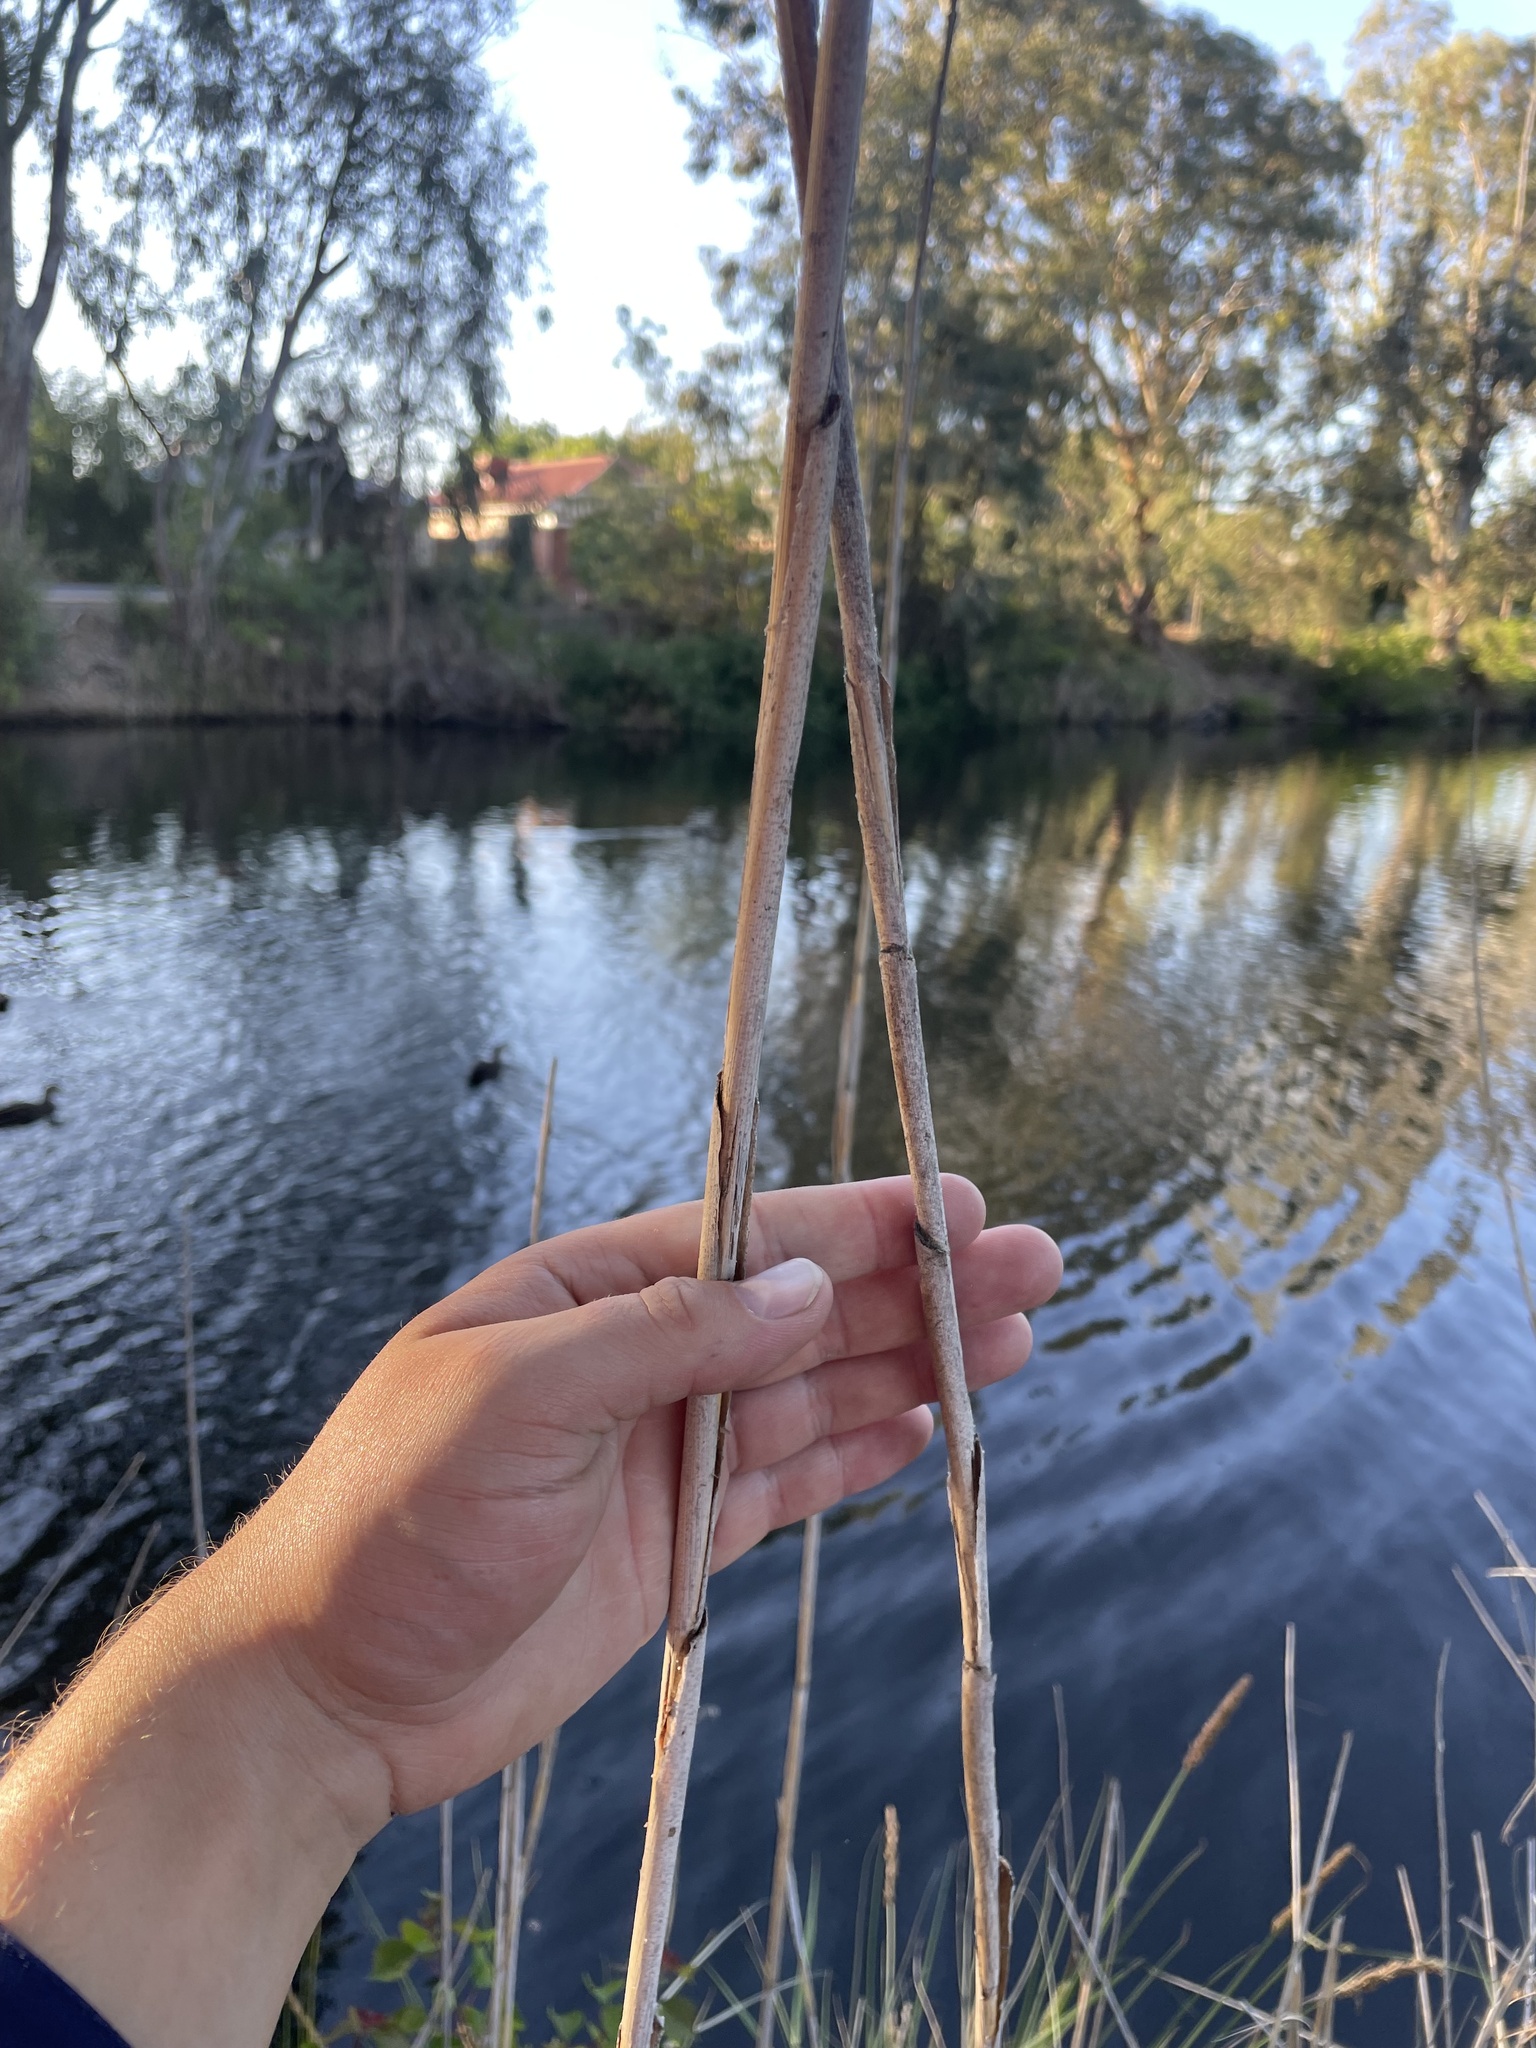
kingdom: Plantae
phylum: Tracheophyta
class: Liliopsida
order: Poales
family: Poaceae
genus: Phragmites
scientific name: Phragmites australis
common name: Common reed
